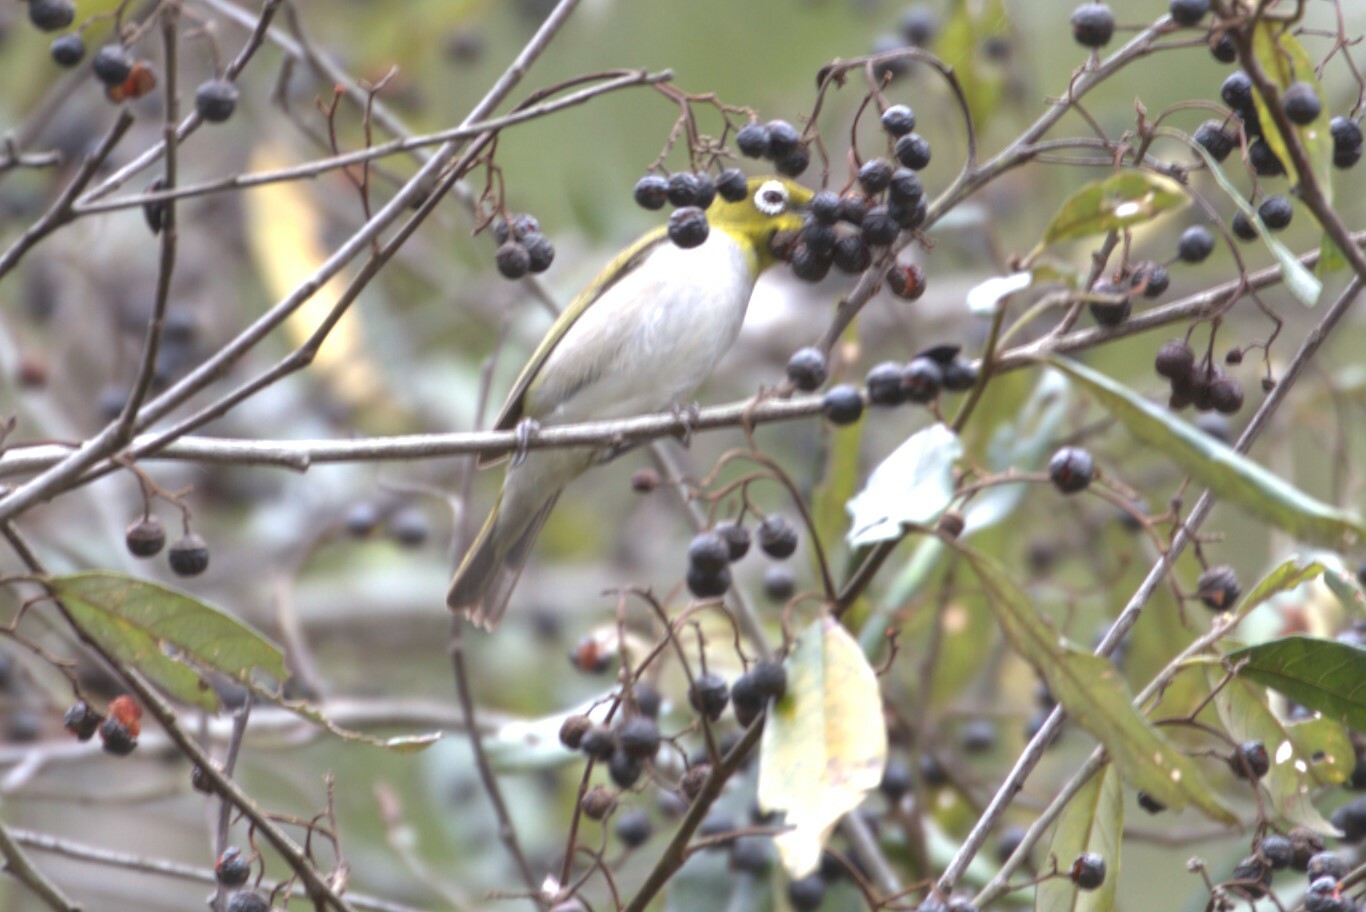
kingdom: Animalia
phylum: Chordata
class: Aves
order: Passeriformes
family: Zosteropidae
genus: Zosterops
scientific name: Zosterops lateralis
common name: Silvereye
